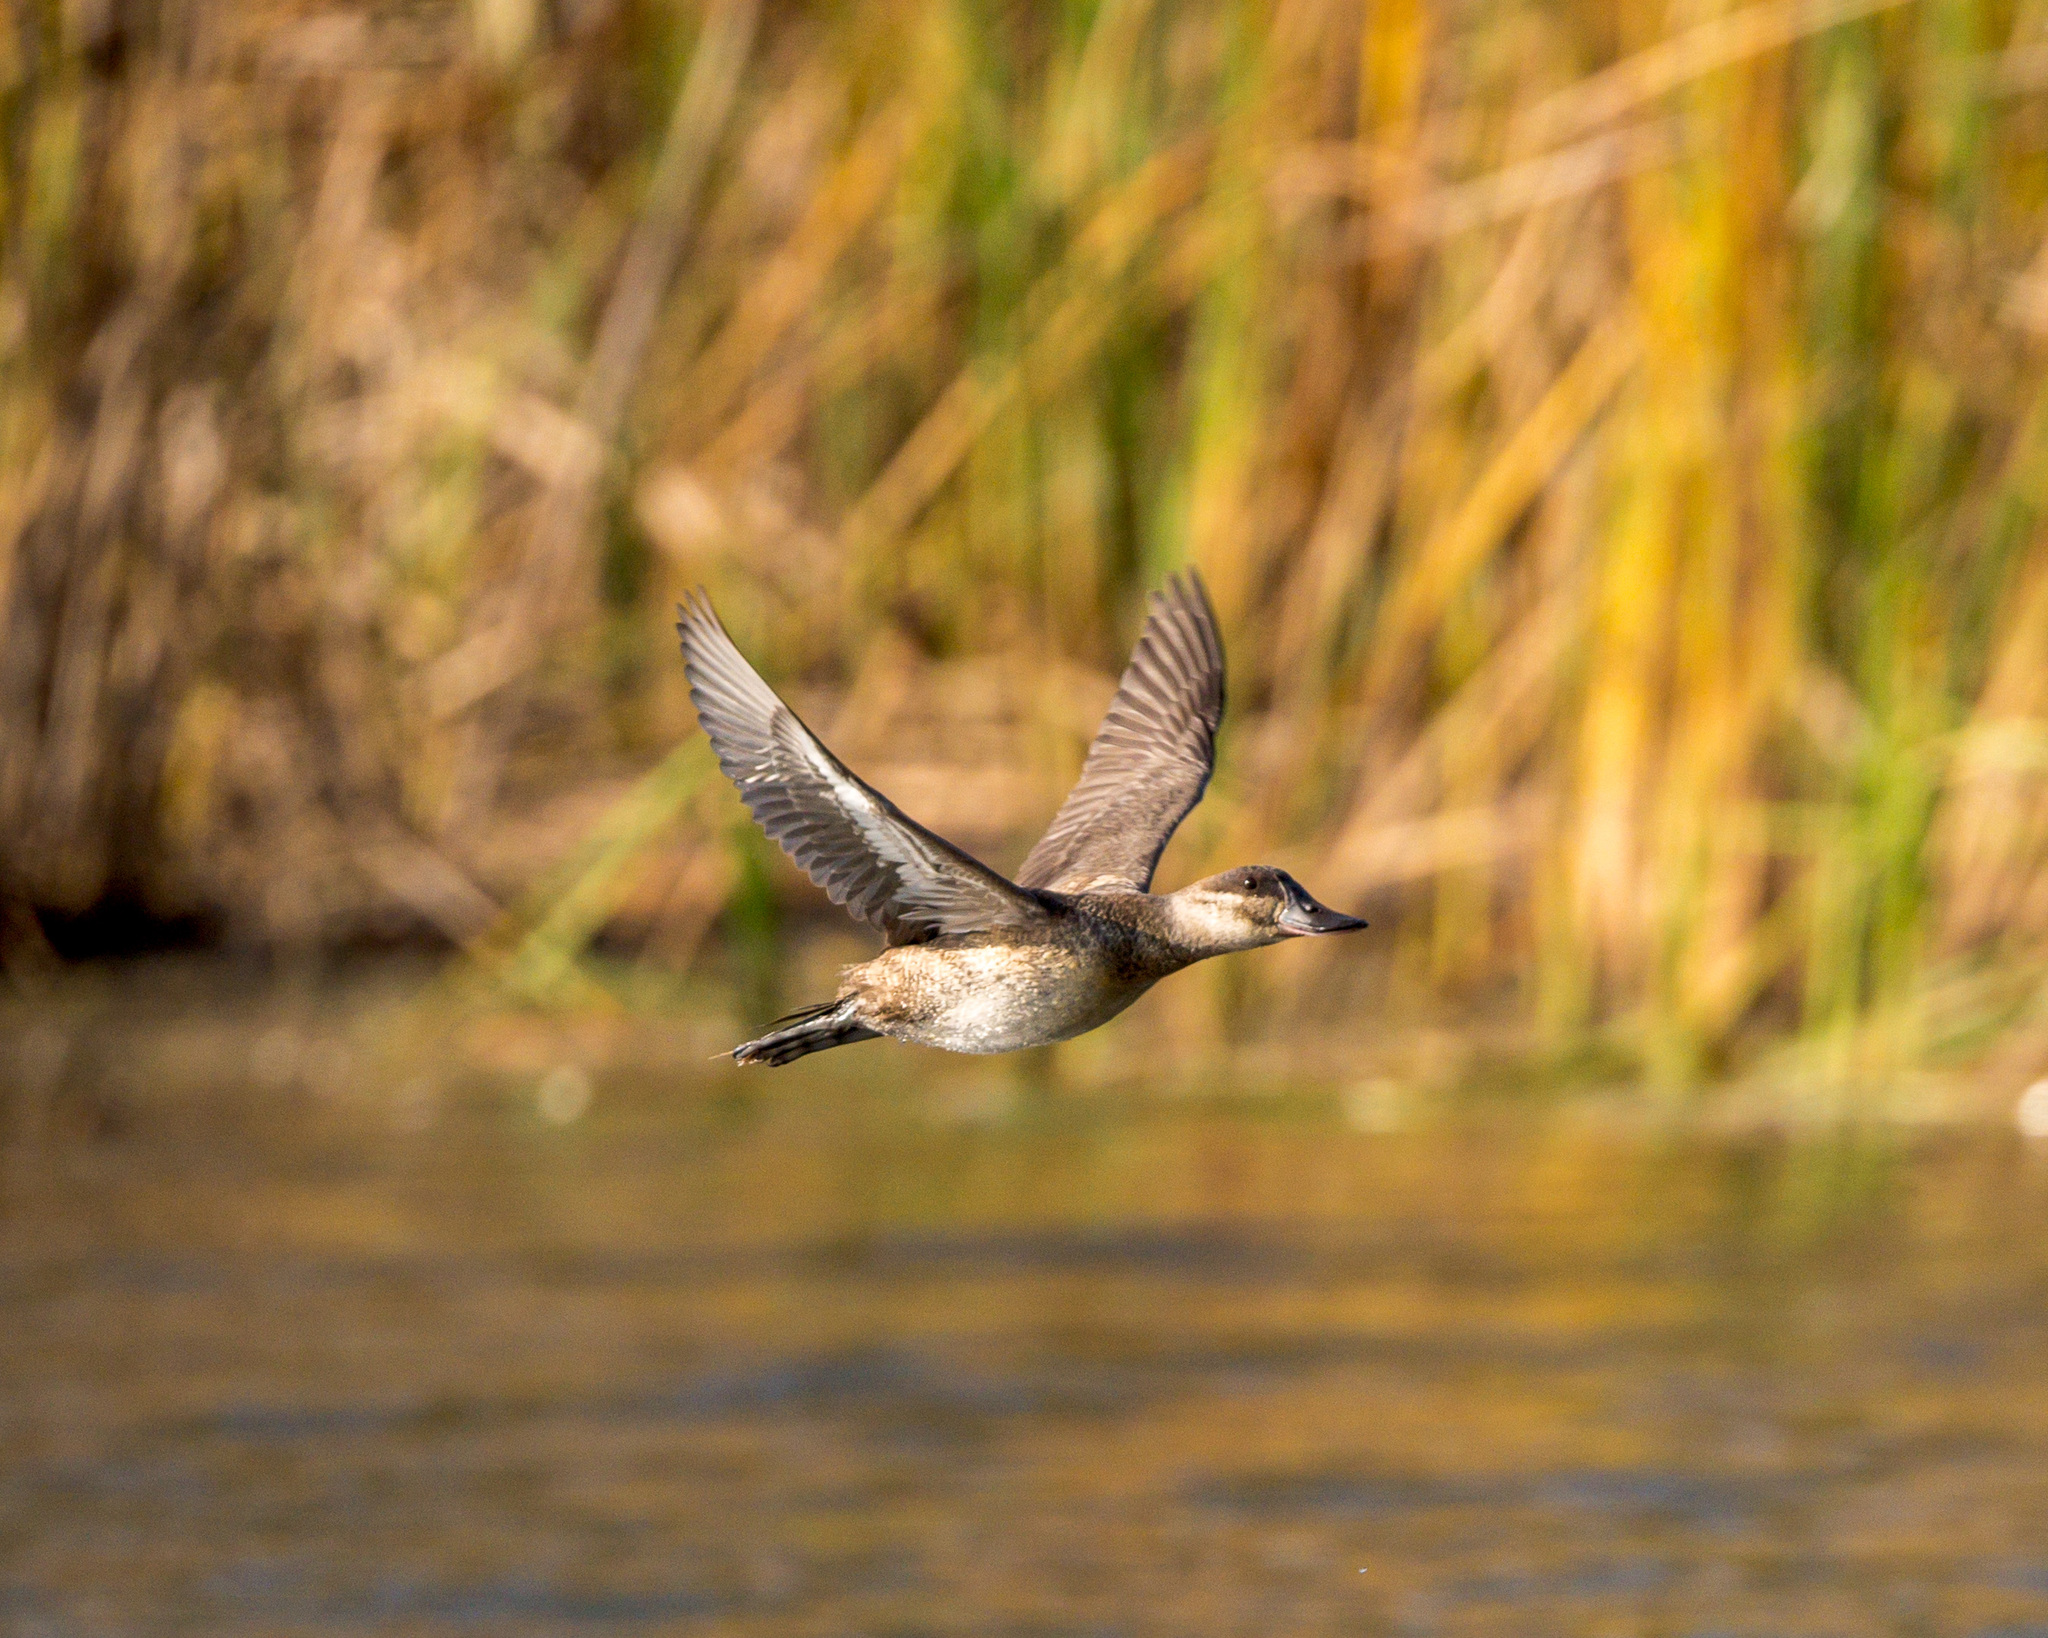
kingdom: Animalia
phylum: Chordata
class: Aves
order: Anseriformes
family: Anatidae
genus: Oxyura
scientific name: Oxyura jamaicensis
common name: Ruddy duck
